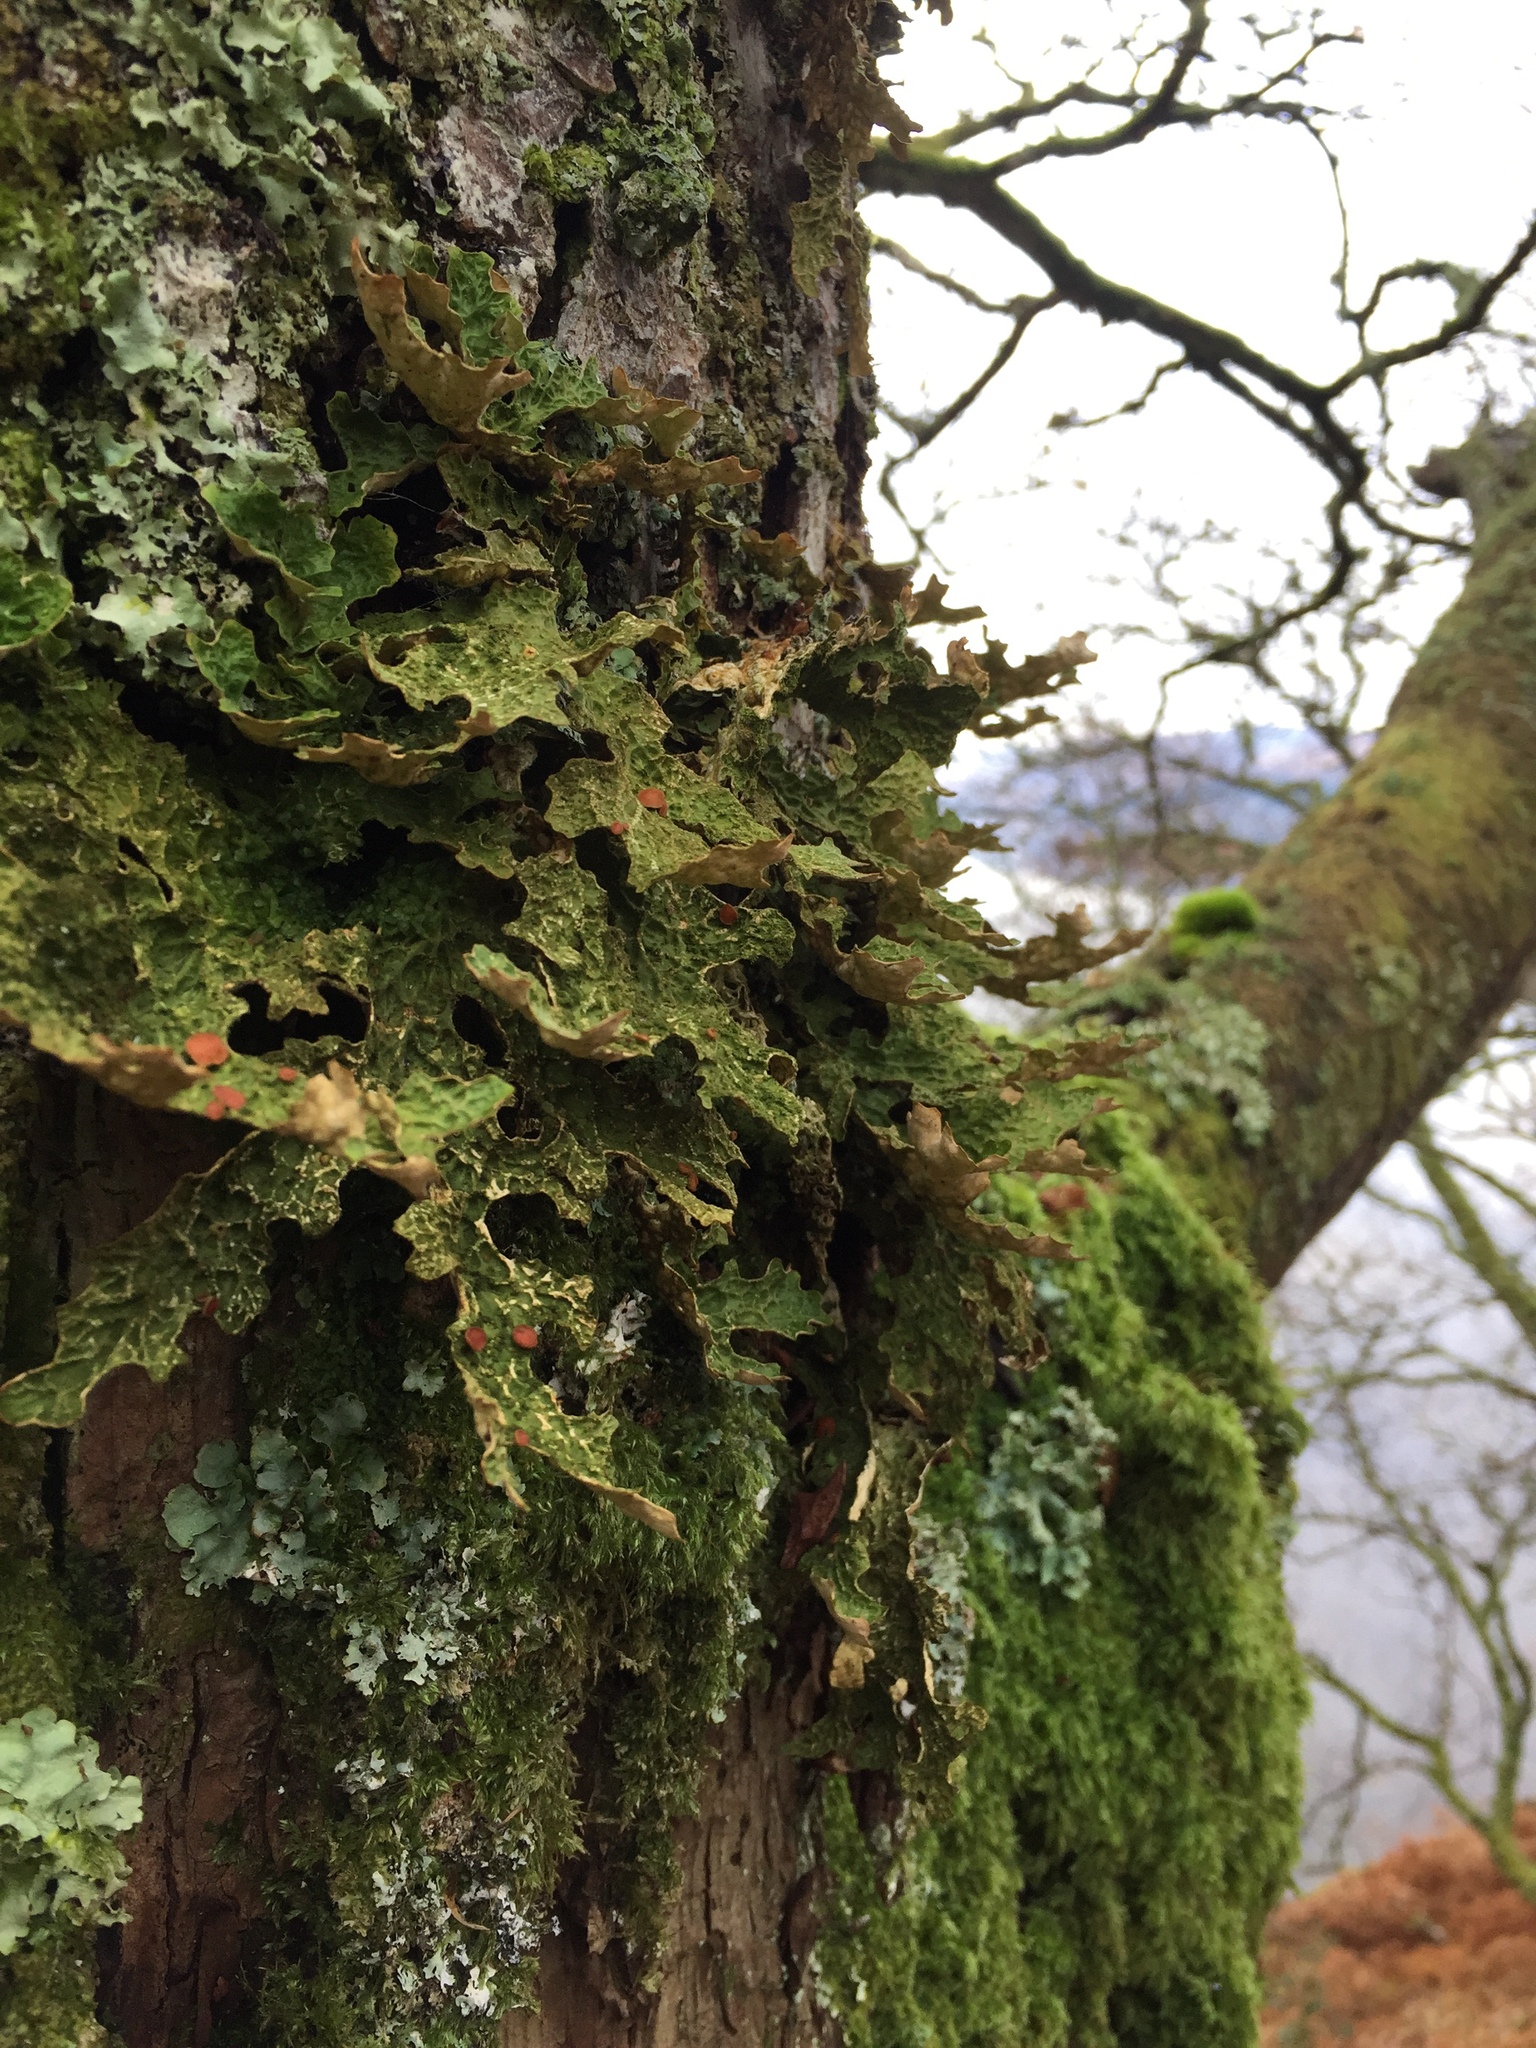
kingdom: Fungi
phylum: Ascomycota
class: Lecanoromycetes
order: Peltigerales
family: Lobariaceae
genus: Lobaria
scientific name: Lobaria pulmonaria
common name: Lungwort
